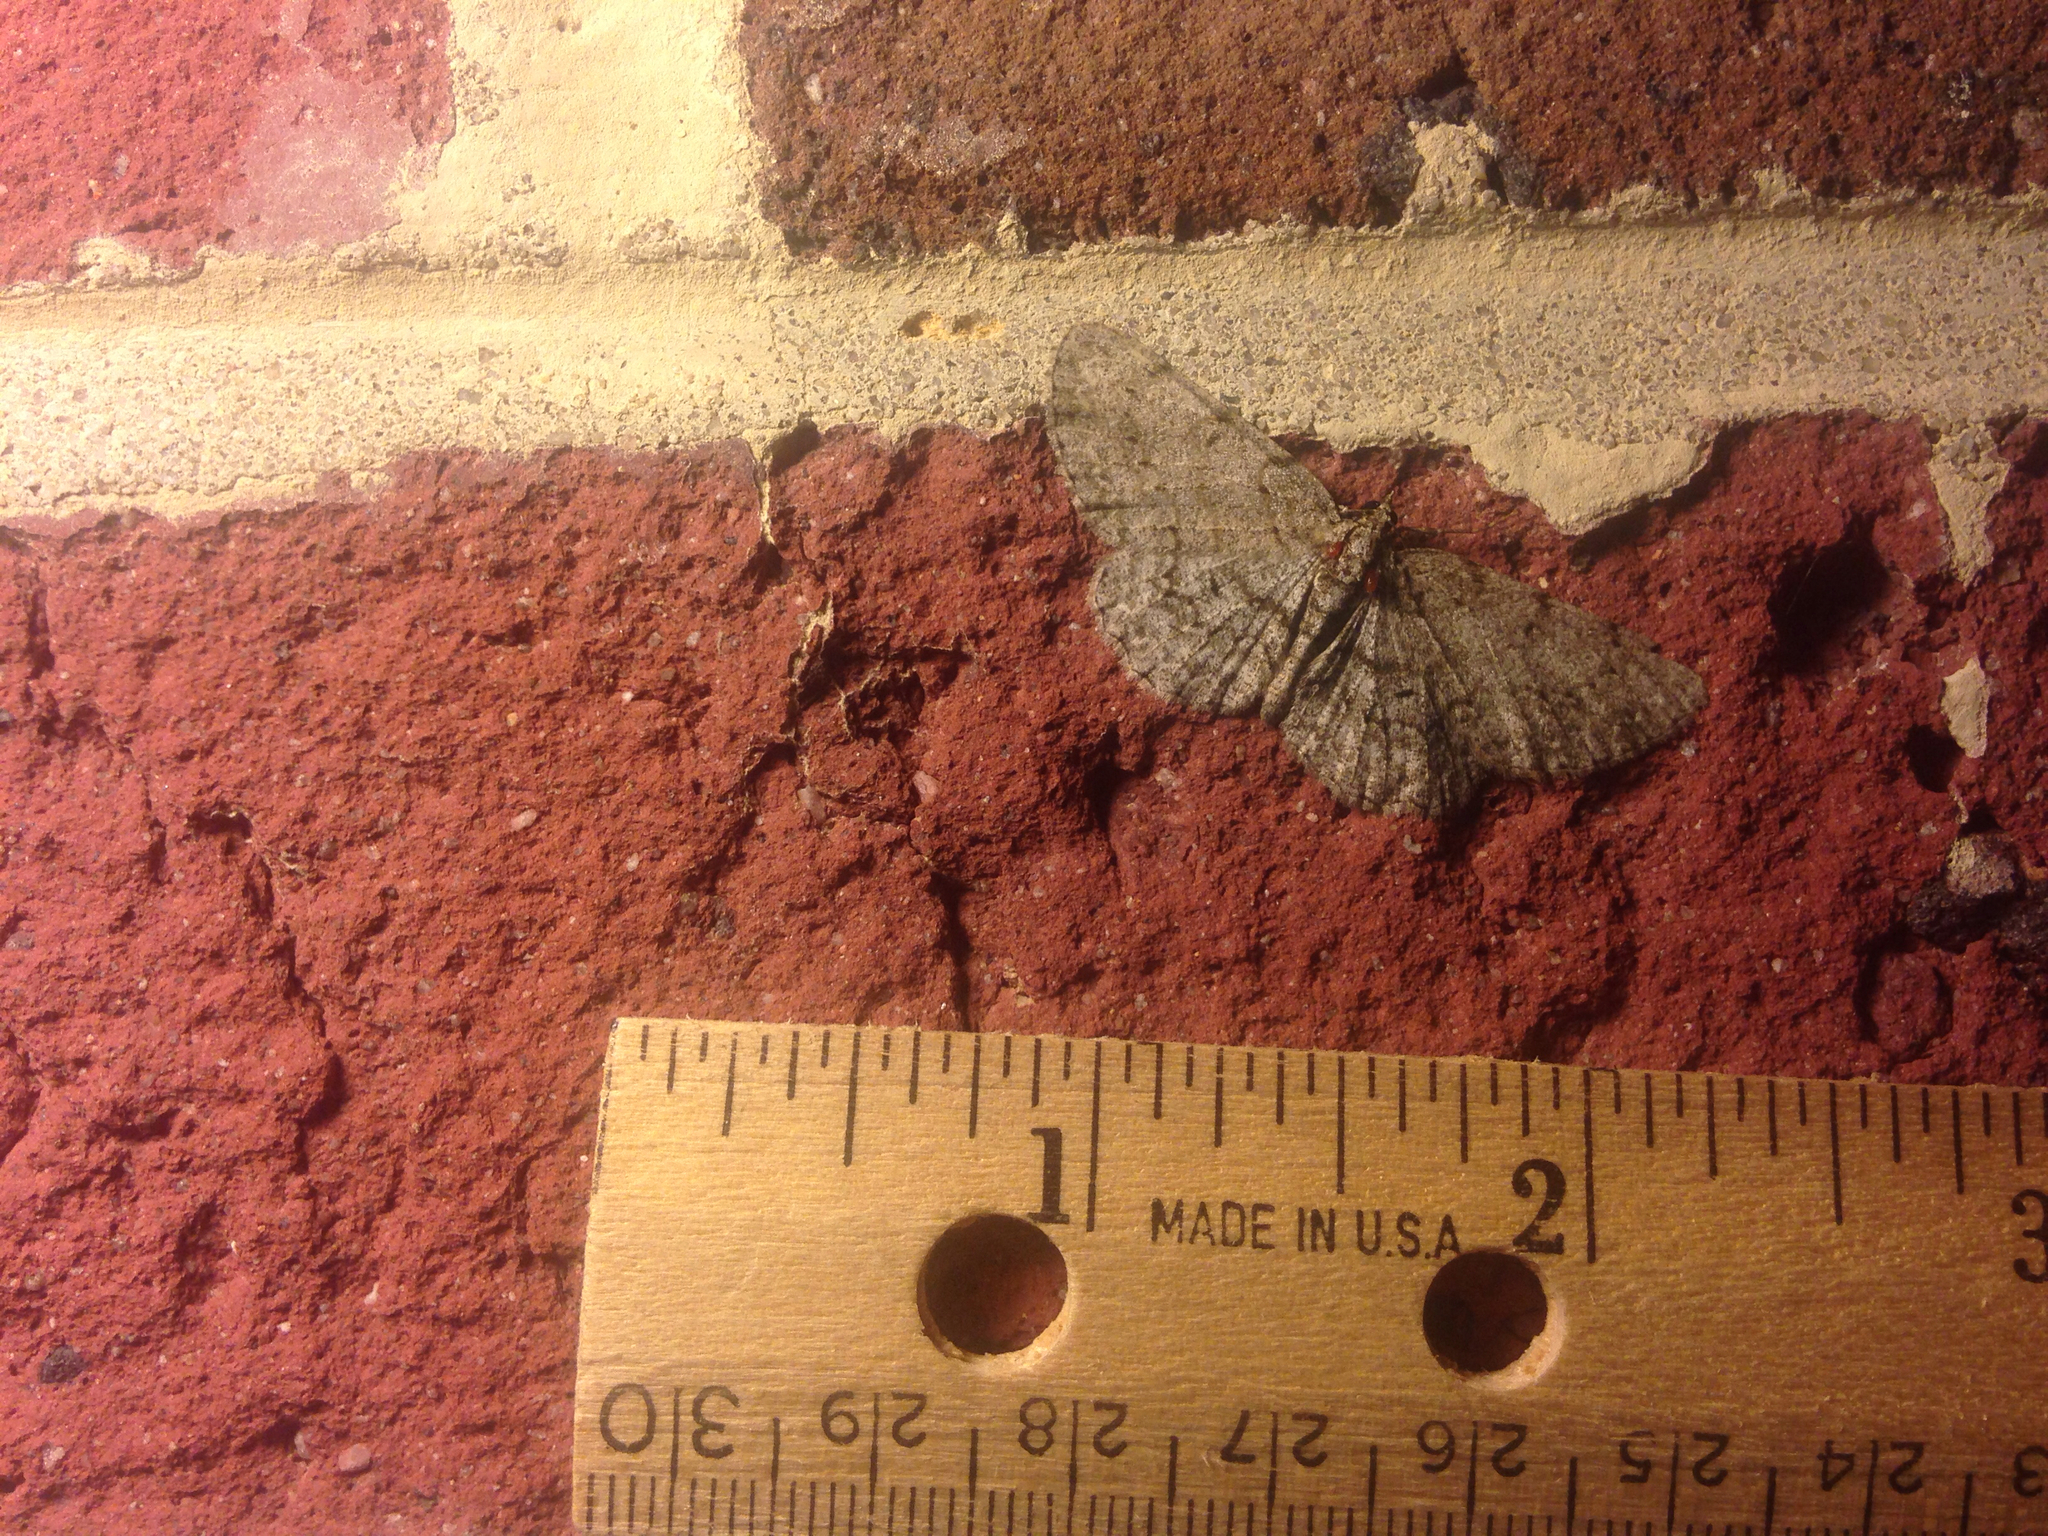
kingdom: Animalia
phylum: Arthropoda
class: Insecta
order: Lepidoptera
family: Geometridae
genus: Protoboarmia
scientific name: Protoboarmia porcelaria
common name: Porcelain gray
